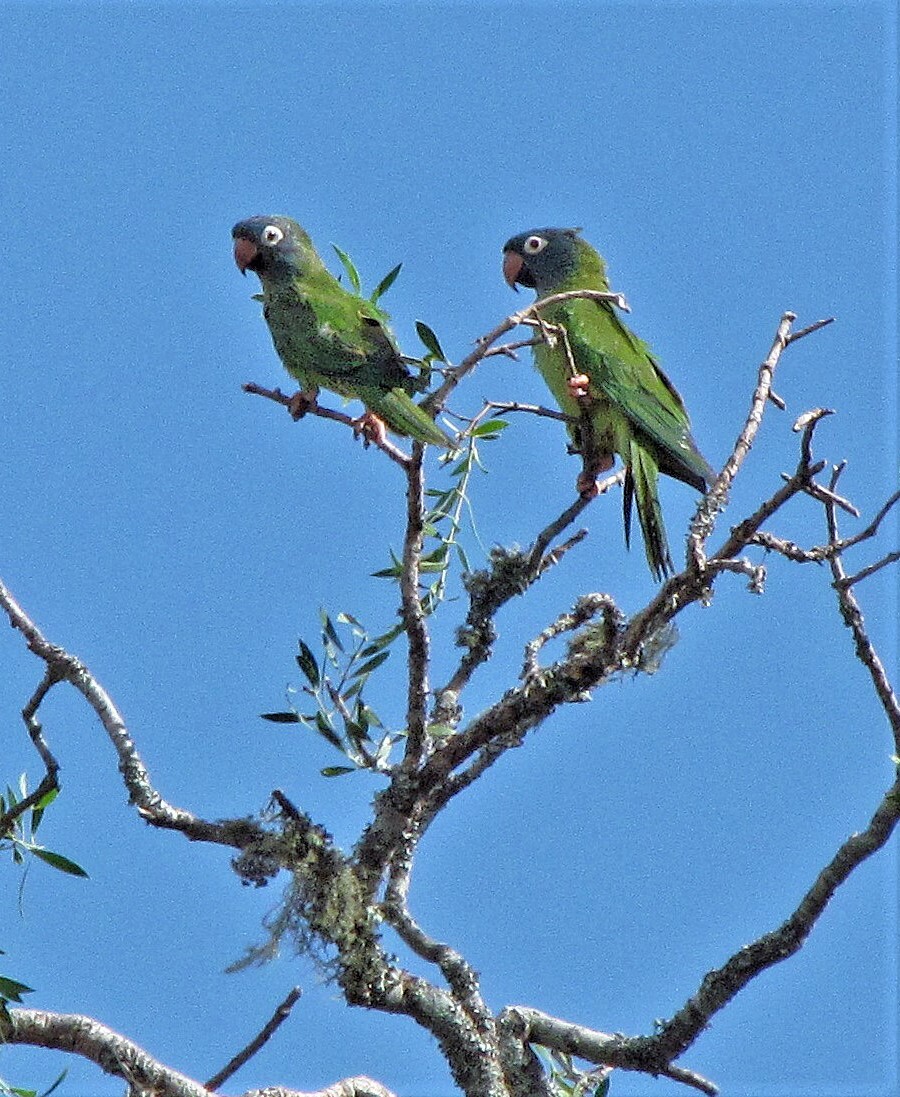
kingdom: Animalia
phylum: Chordata
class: Aves
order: Psittaciformes
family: Psittacidae
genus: Aratinga
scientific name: Aratinga acuticaudata
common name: Blue-crowned parakeet
